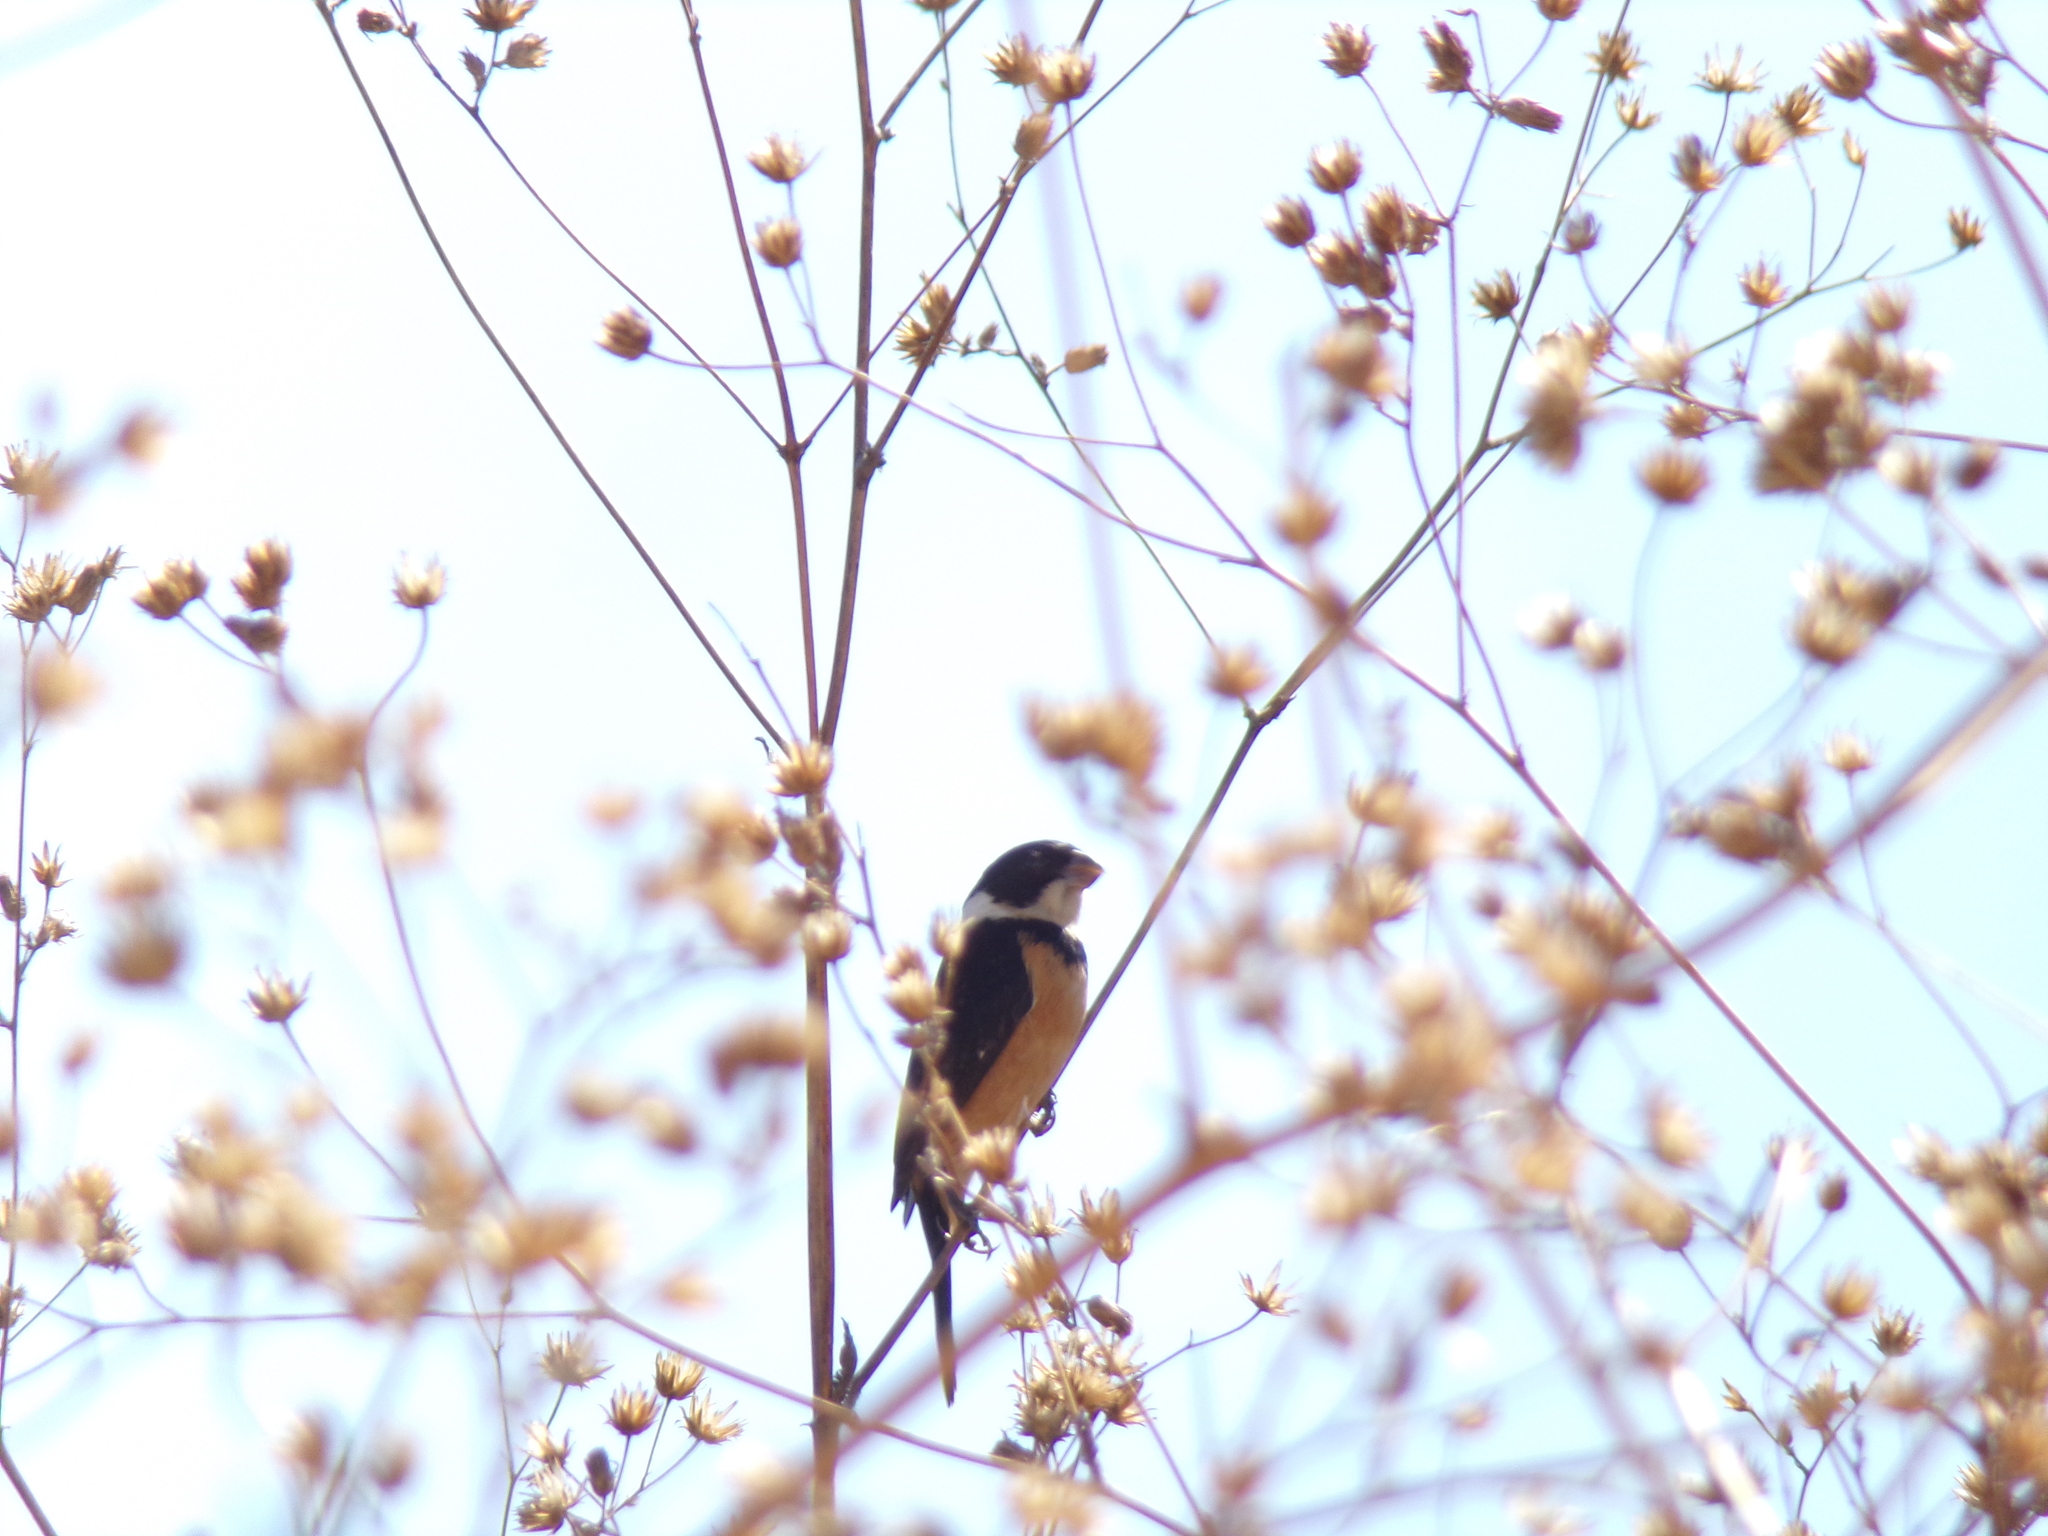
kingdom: Animalia
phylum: Chordata
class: Aves
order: Passeriformes
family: Thraupidae
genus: Sporophila
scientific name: Sporophila torqueola
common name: White-collared seedeater
